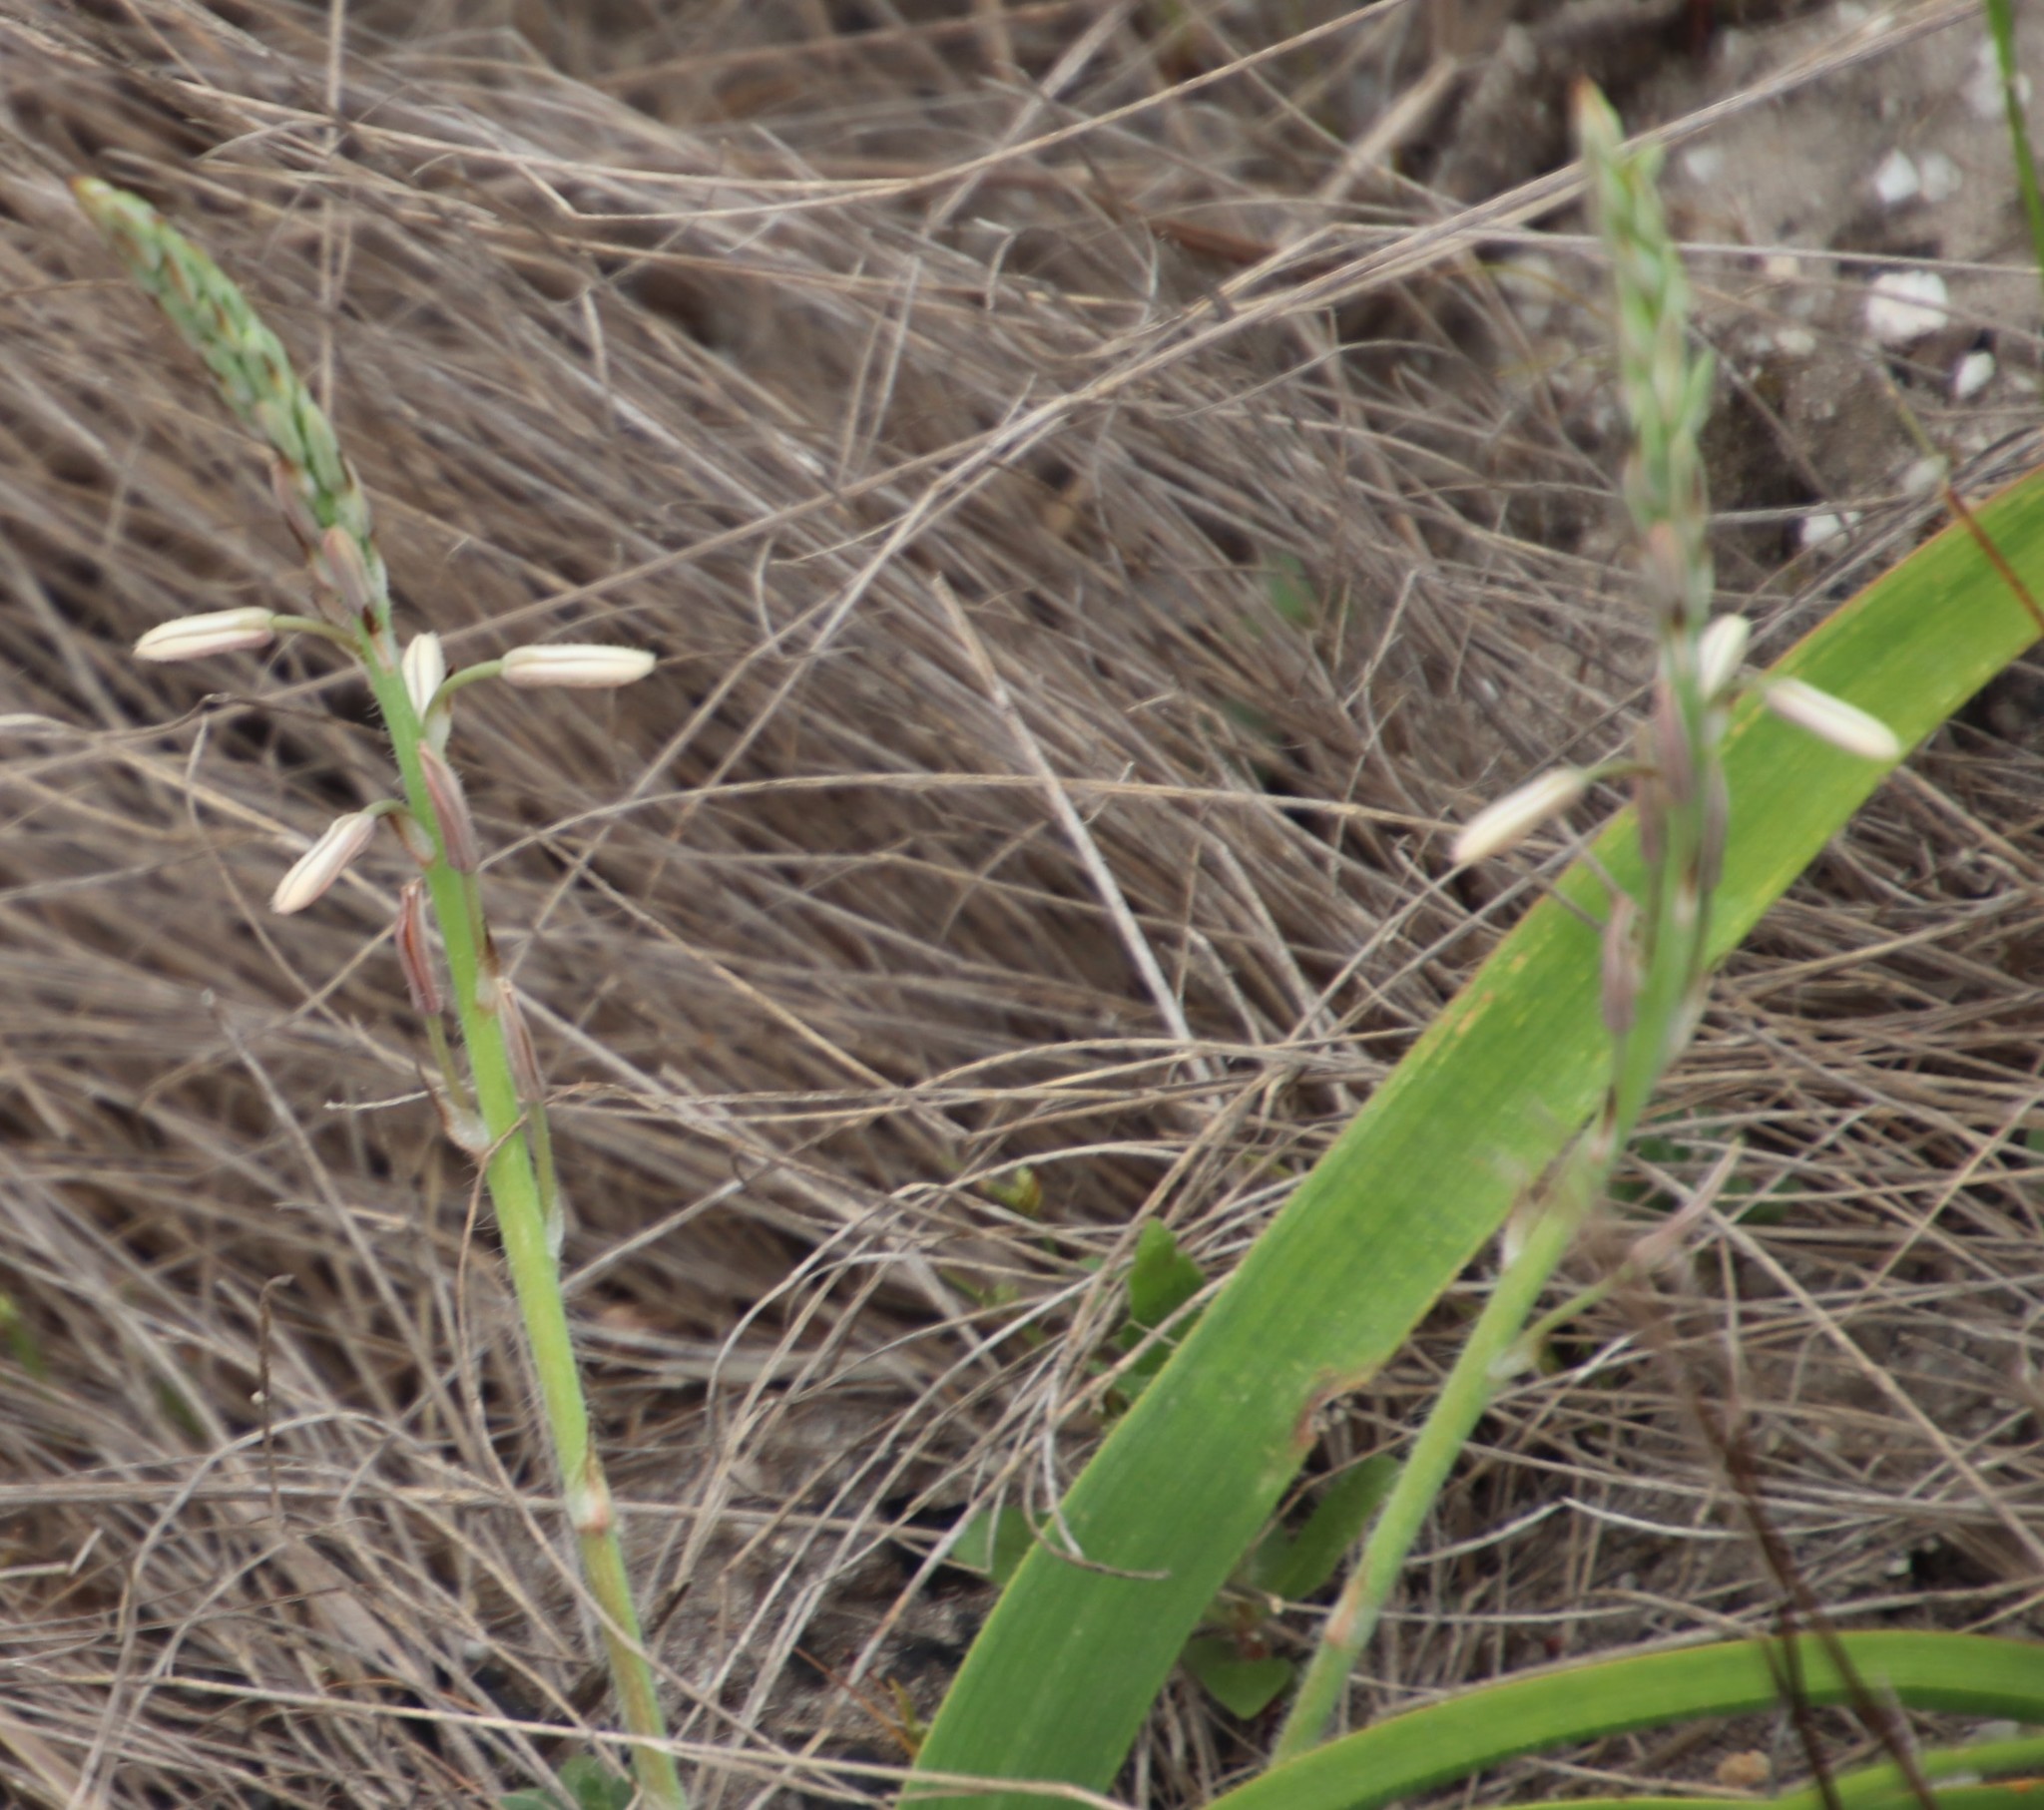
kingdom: Plantae
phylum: Tracheophyta
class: Liliopsida
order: Asparagales
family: Asphodelaceae
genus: Trachyandra
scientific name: Trachyandra ciliata
